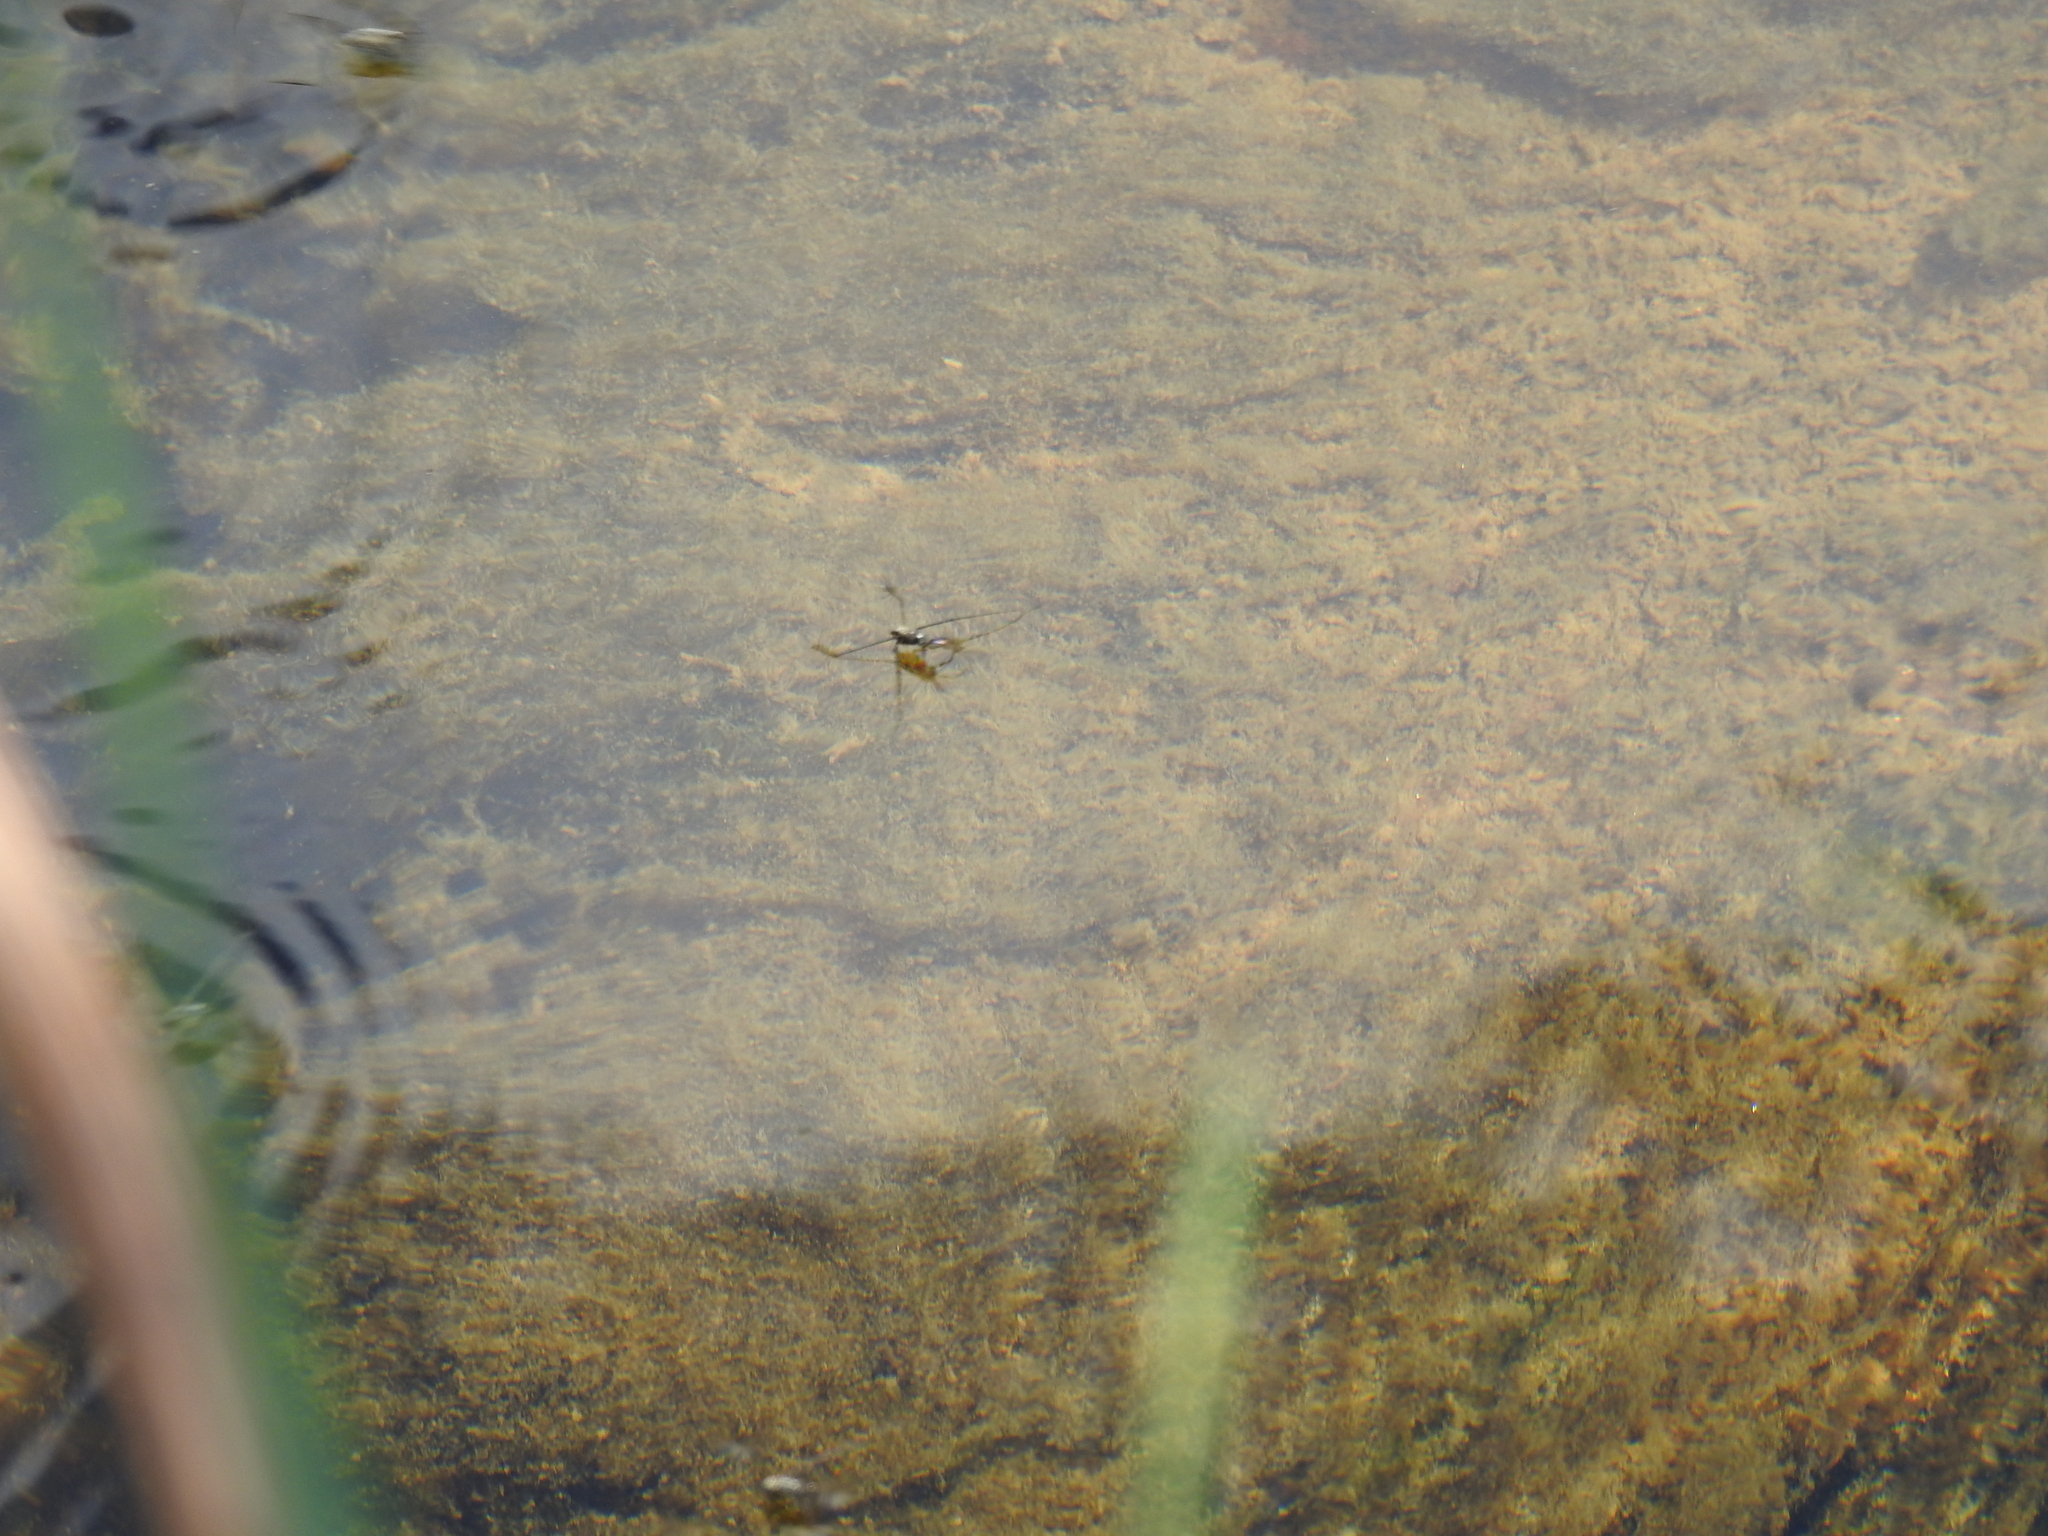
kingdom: Animalia
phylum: Arthropoda
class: Insecta
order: Hemiptera
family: Gerridae
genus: Metrobates
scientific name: Metrobates hesperius
